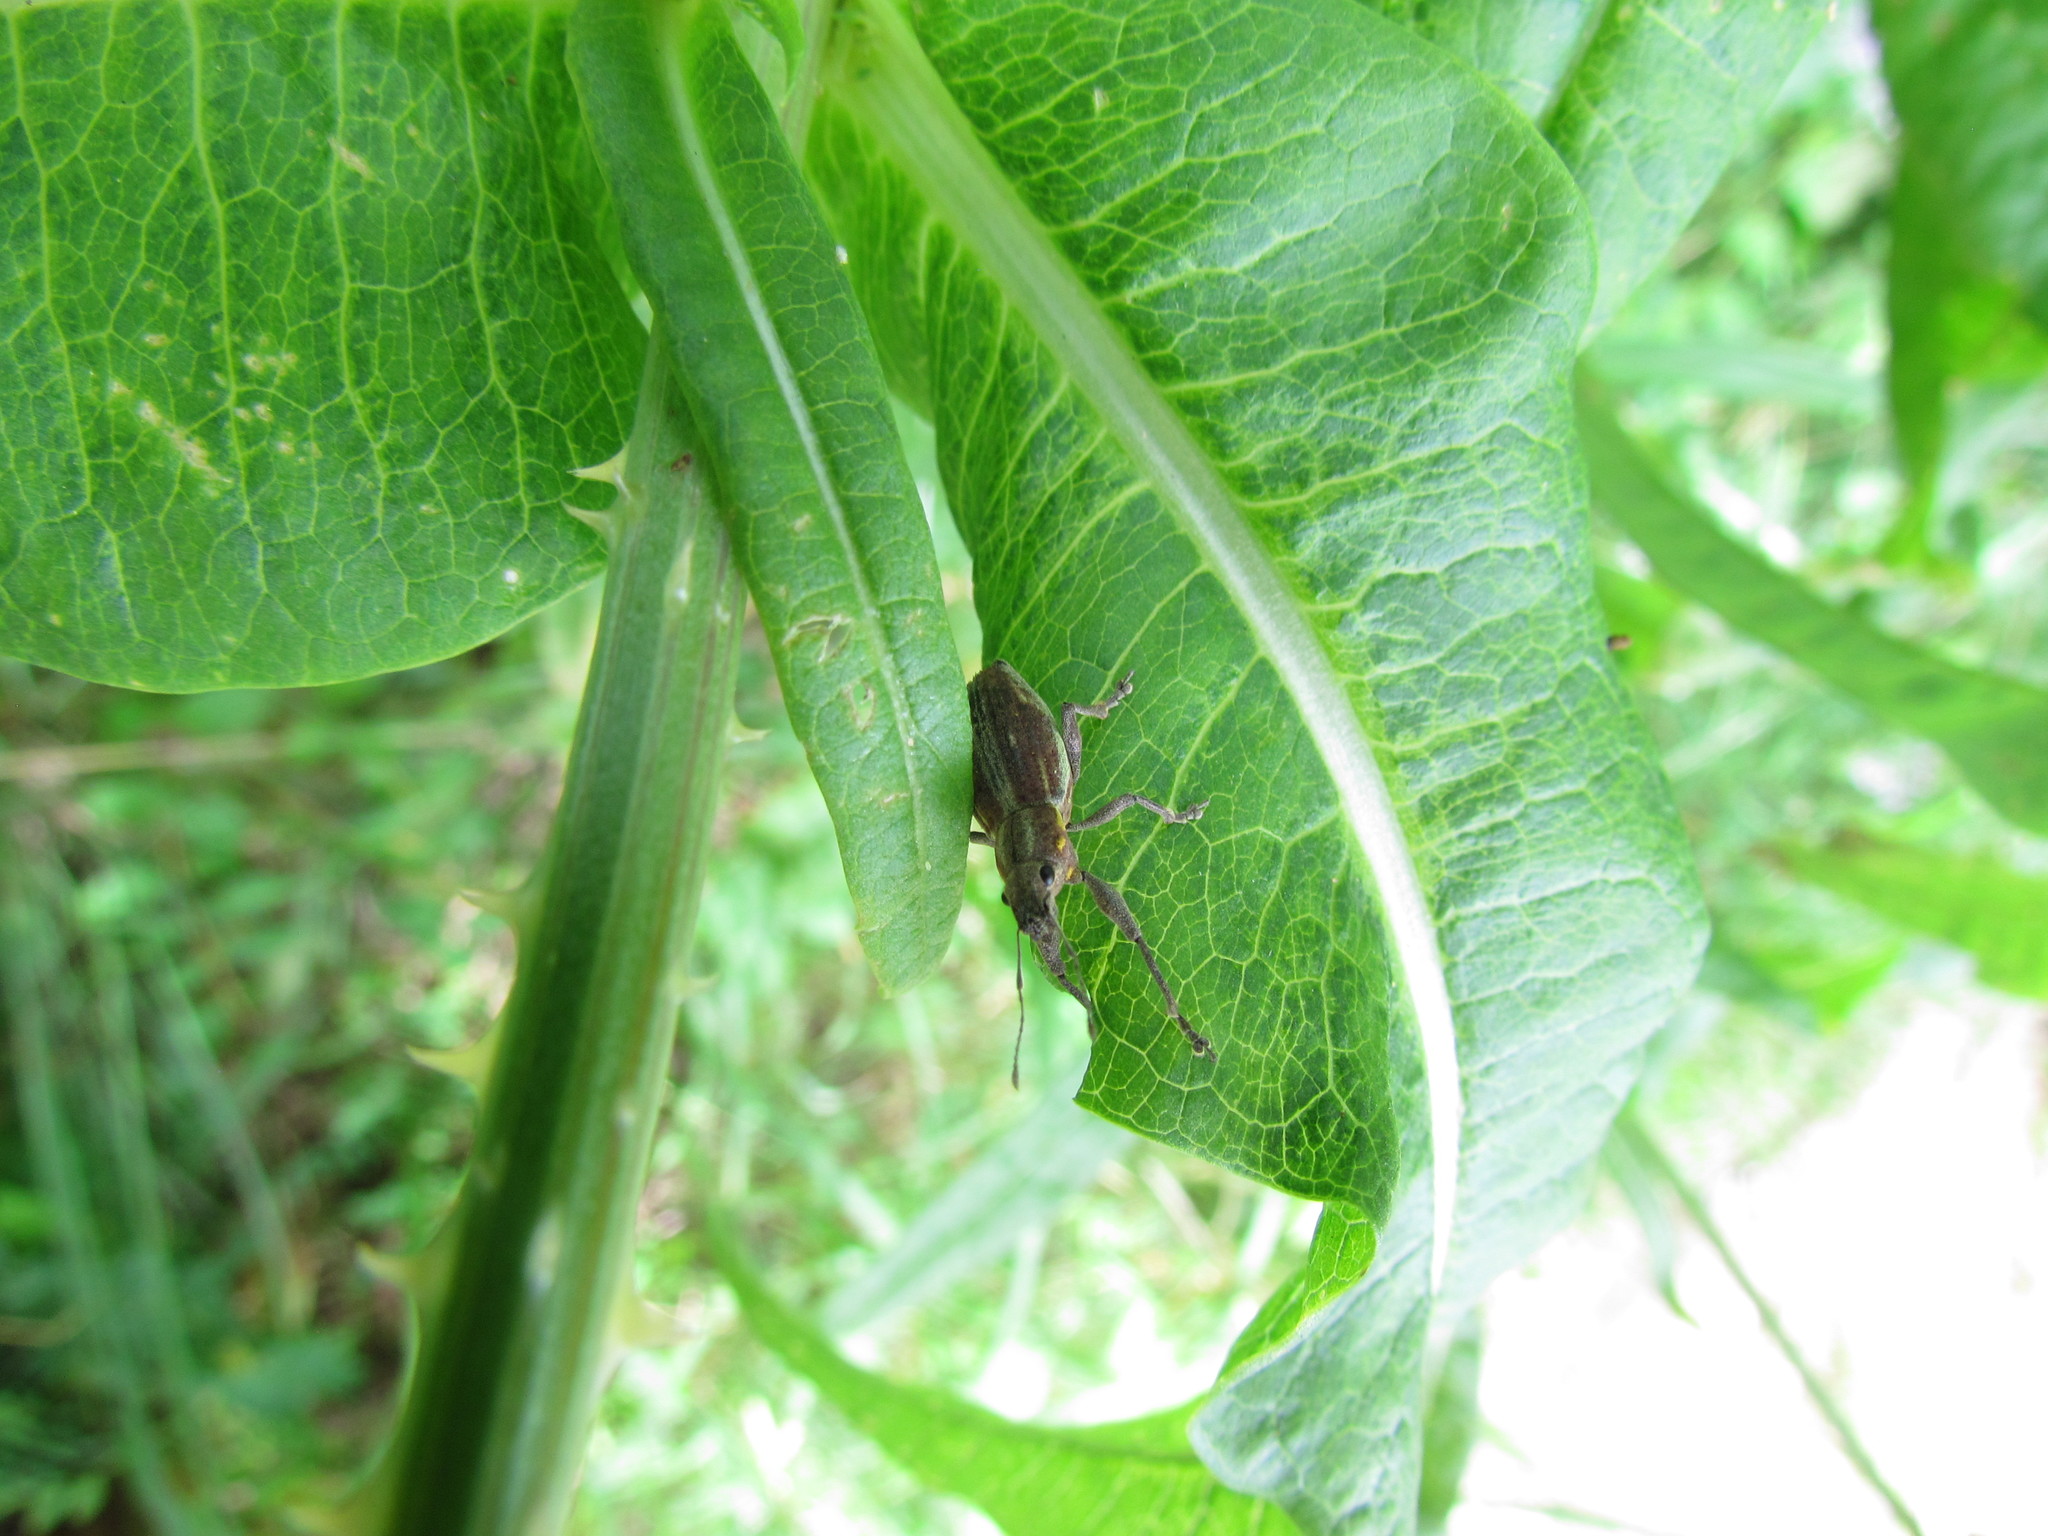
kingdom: Animalia
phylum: Arthropoda
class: Insecta
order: Coleoptera
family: Curculionidae
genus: Naupactus
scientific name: Naupactus xanthographus
